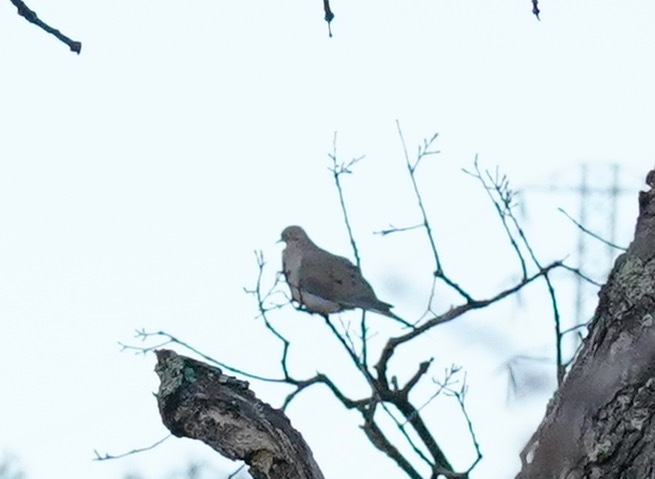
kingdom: Animalia
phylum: Chordata
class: Aves
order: Columbiformes
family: Columbidae
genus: Zenaida
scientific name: Zenaida macroura
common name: Mourning dove
